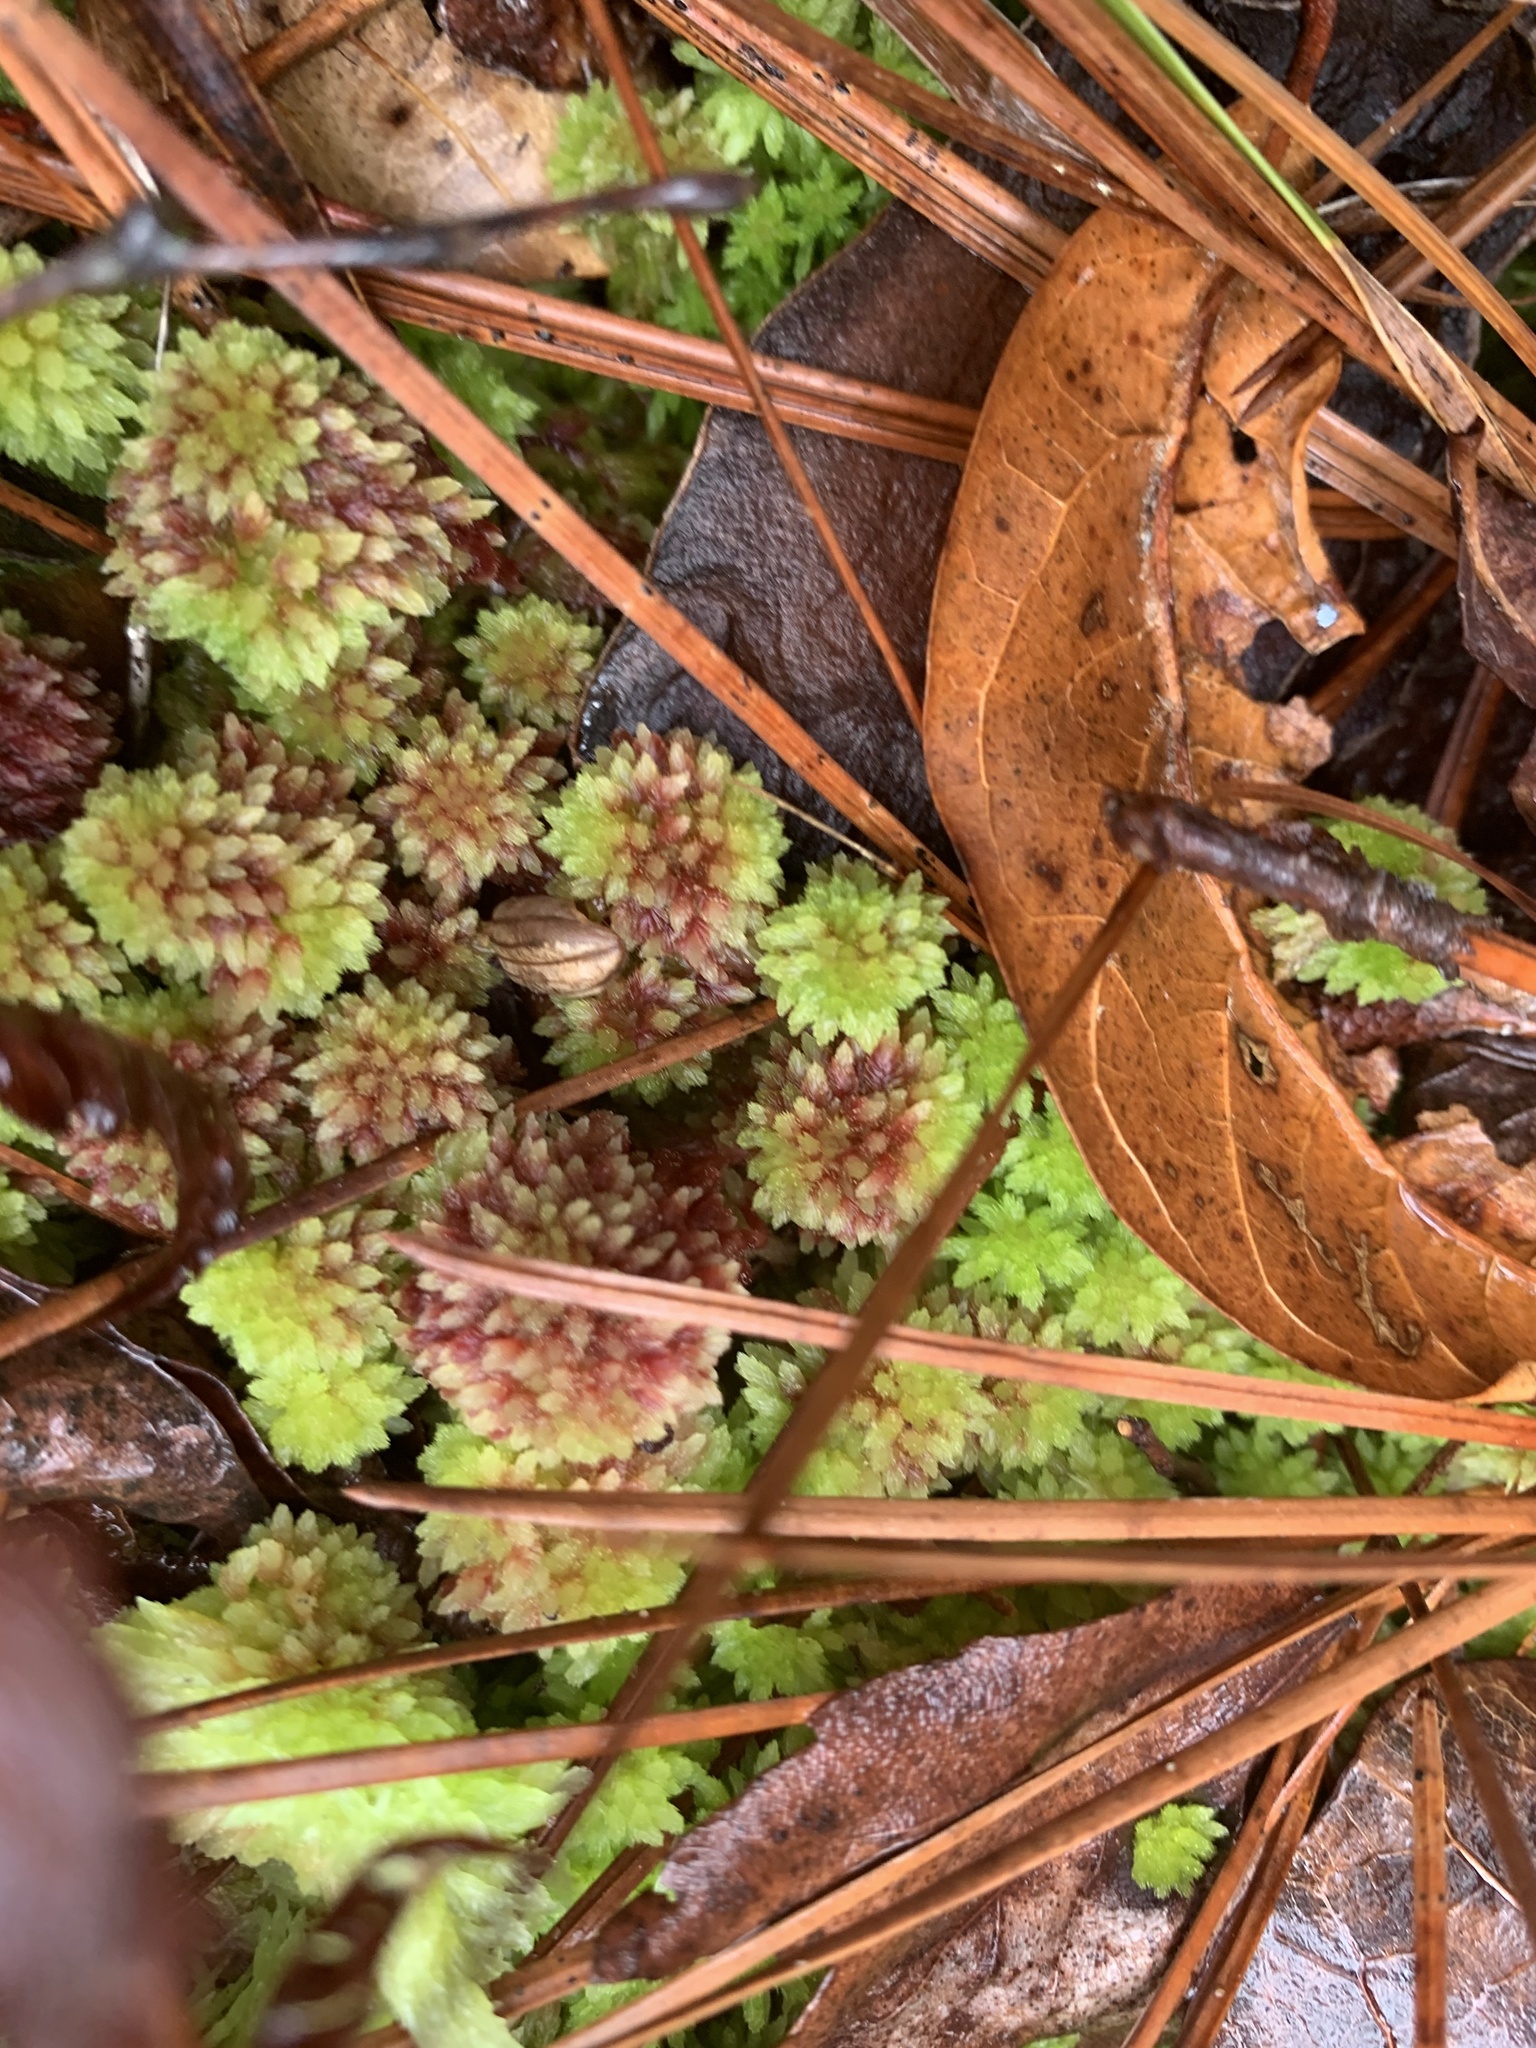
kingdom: Plantae
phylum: Bryophyta
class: Sphagnopsida
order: Sphagnales
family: Sphagnaceae
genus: Sphagnum
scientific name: Sphagnum tenerum
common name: Slender peat moss
